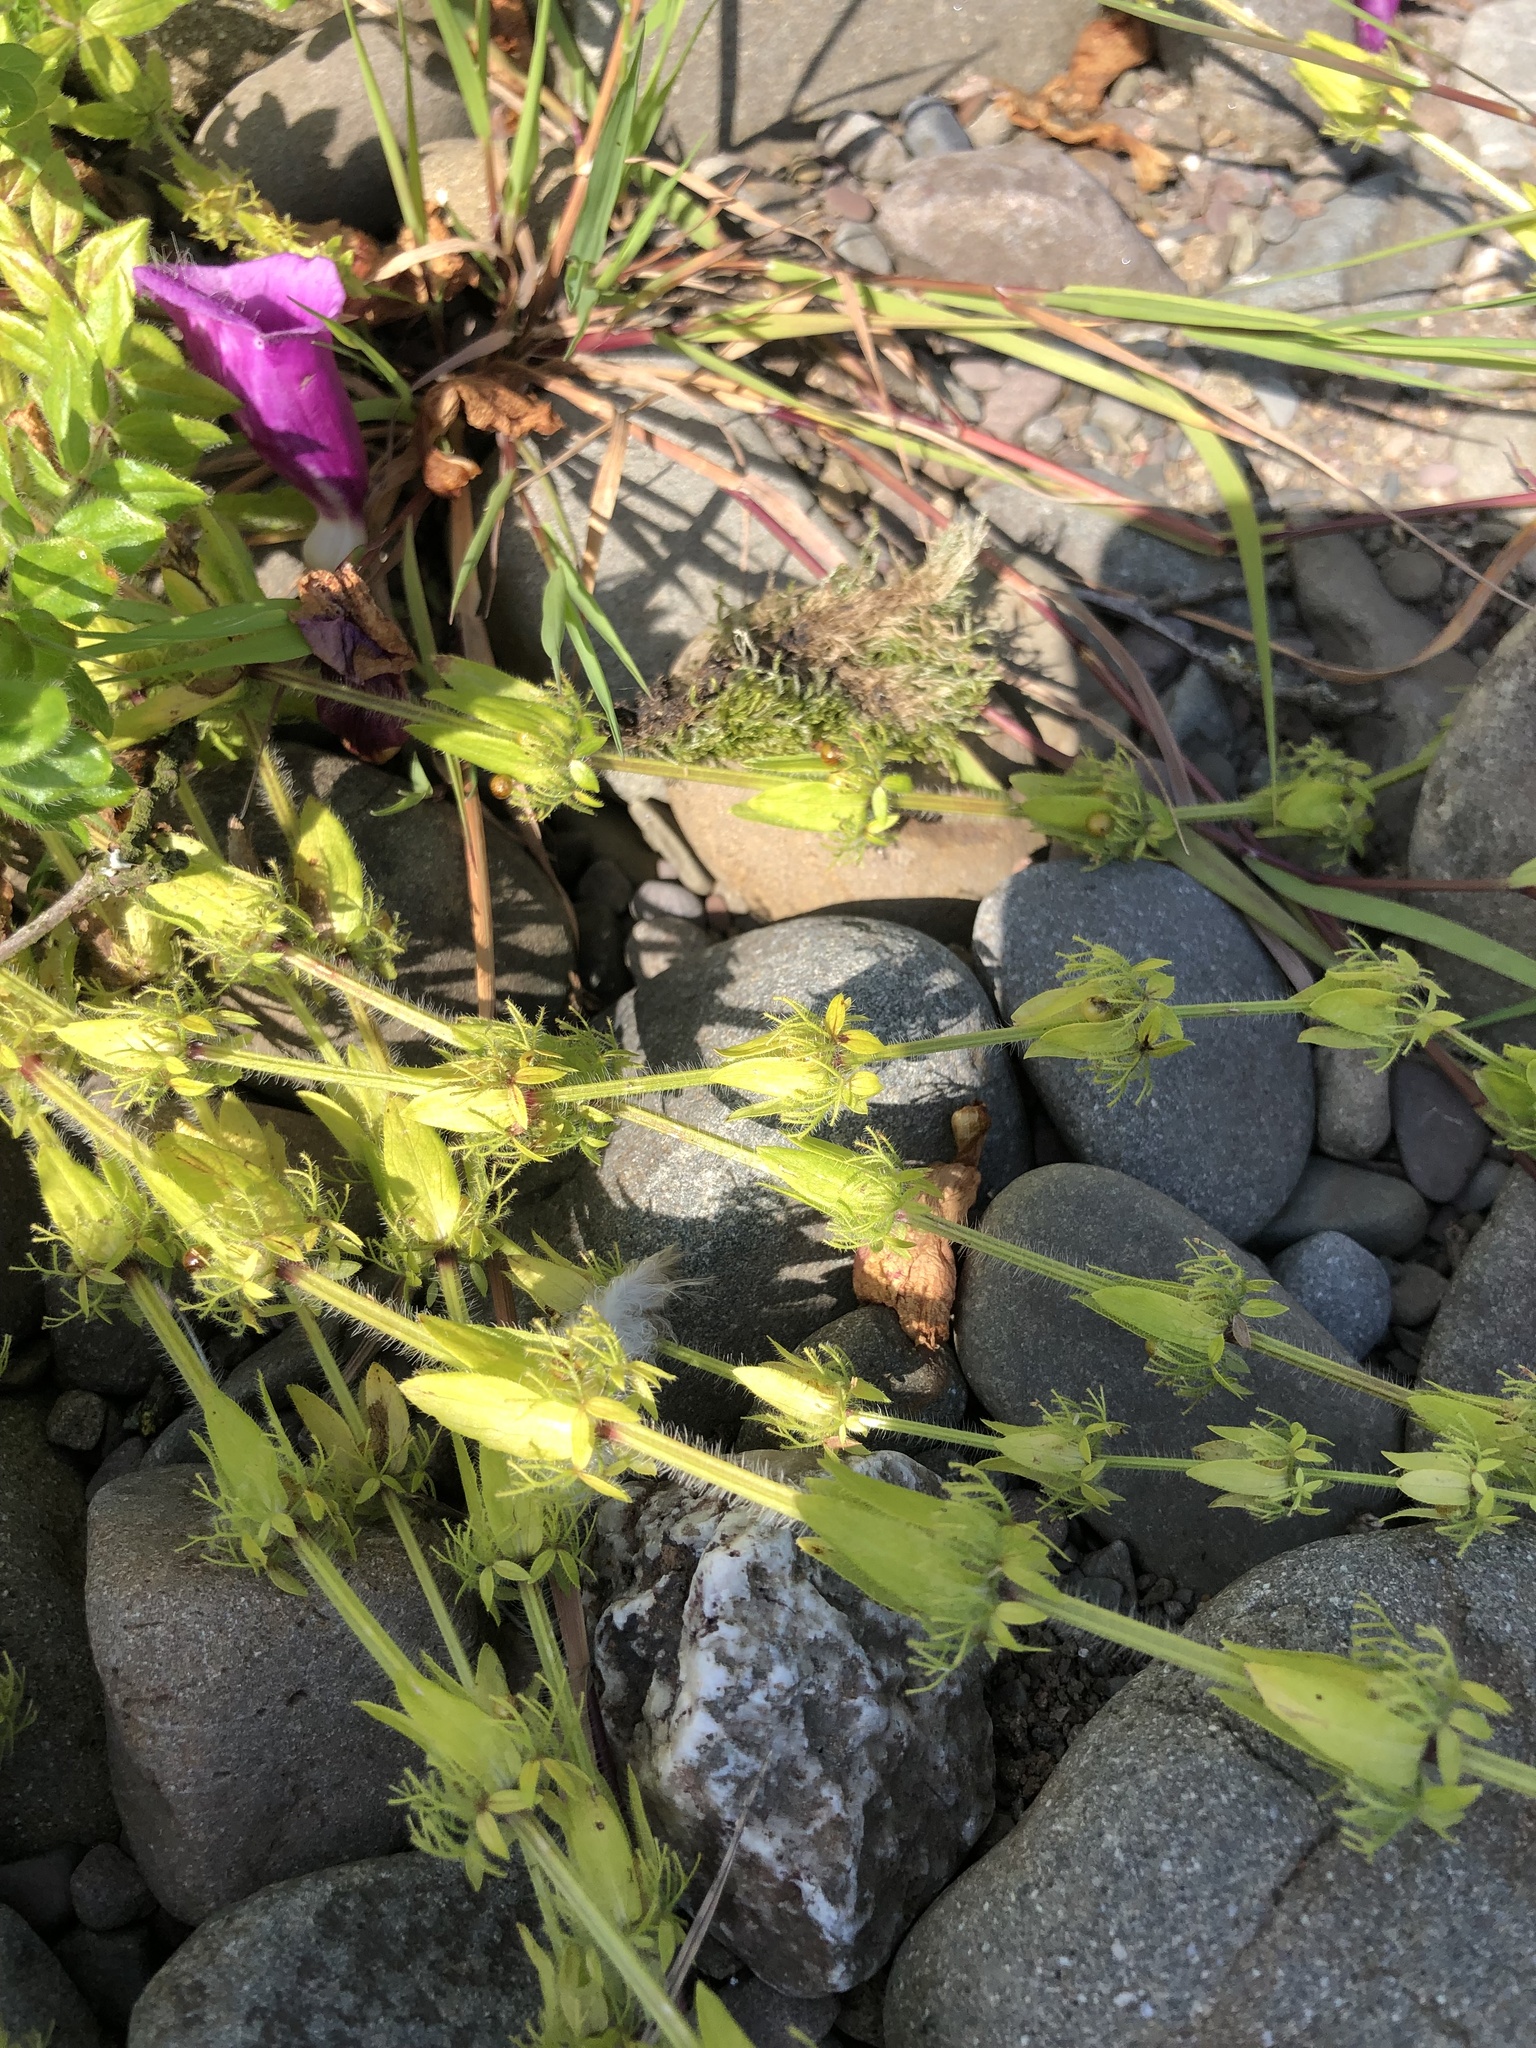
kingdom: Plantae
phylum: Tracheophyta
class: Magnoliopsida
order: Gentianales
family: Rubiaceae
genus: Cruciata
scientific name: Cruciata laevipes
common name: Crosswort
